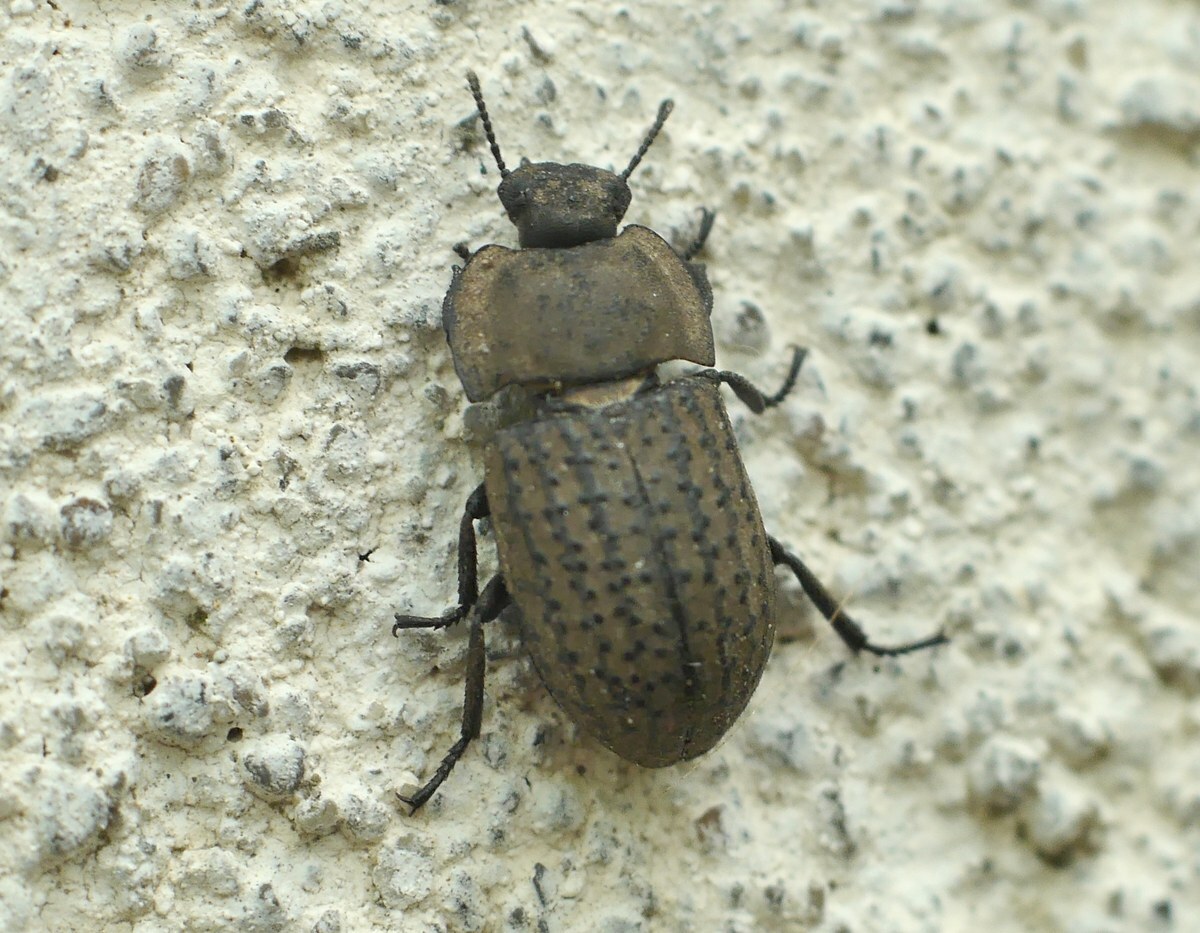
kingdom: Animalia
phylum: Arthropoda
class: Insecta
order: Coleoptera
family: Tenebrionidae
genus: Opatrum
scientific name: Opatrum sabulosum
